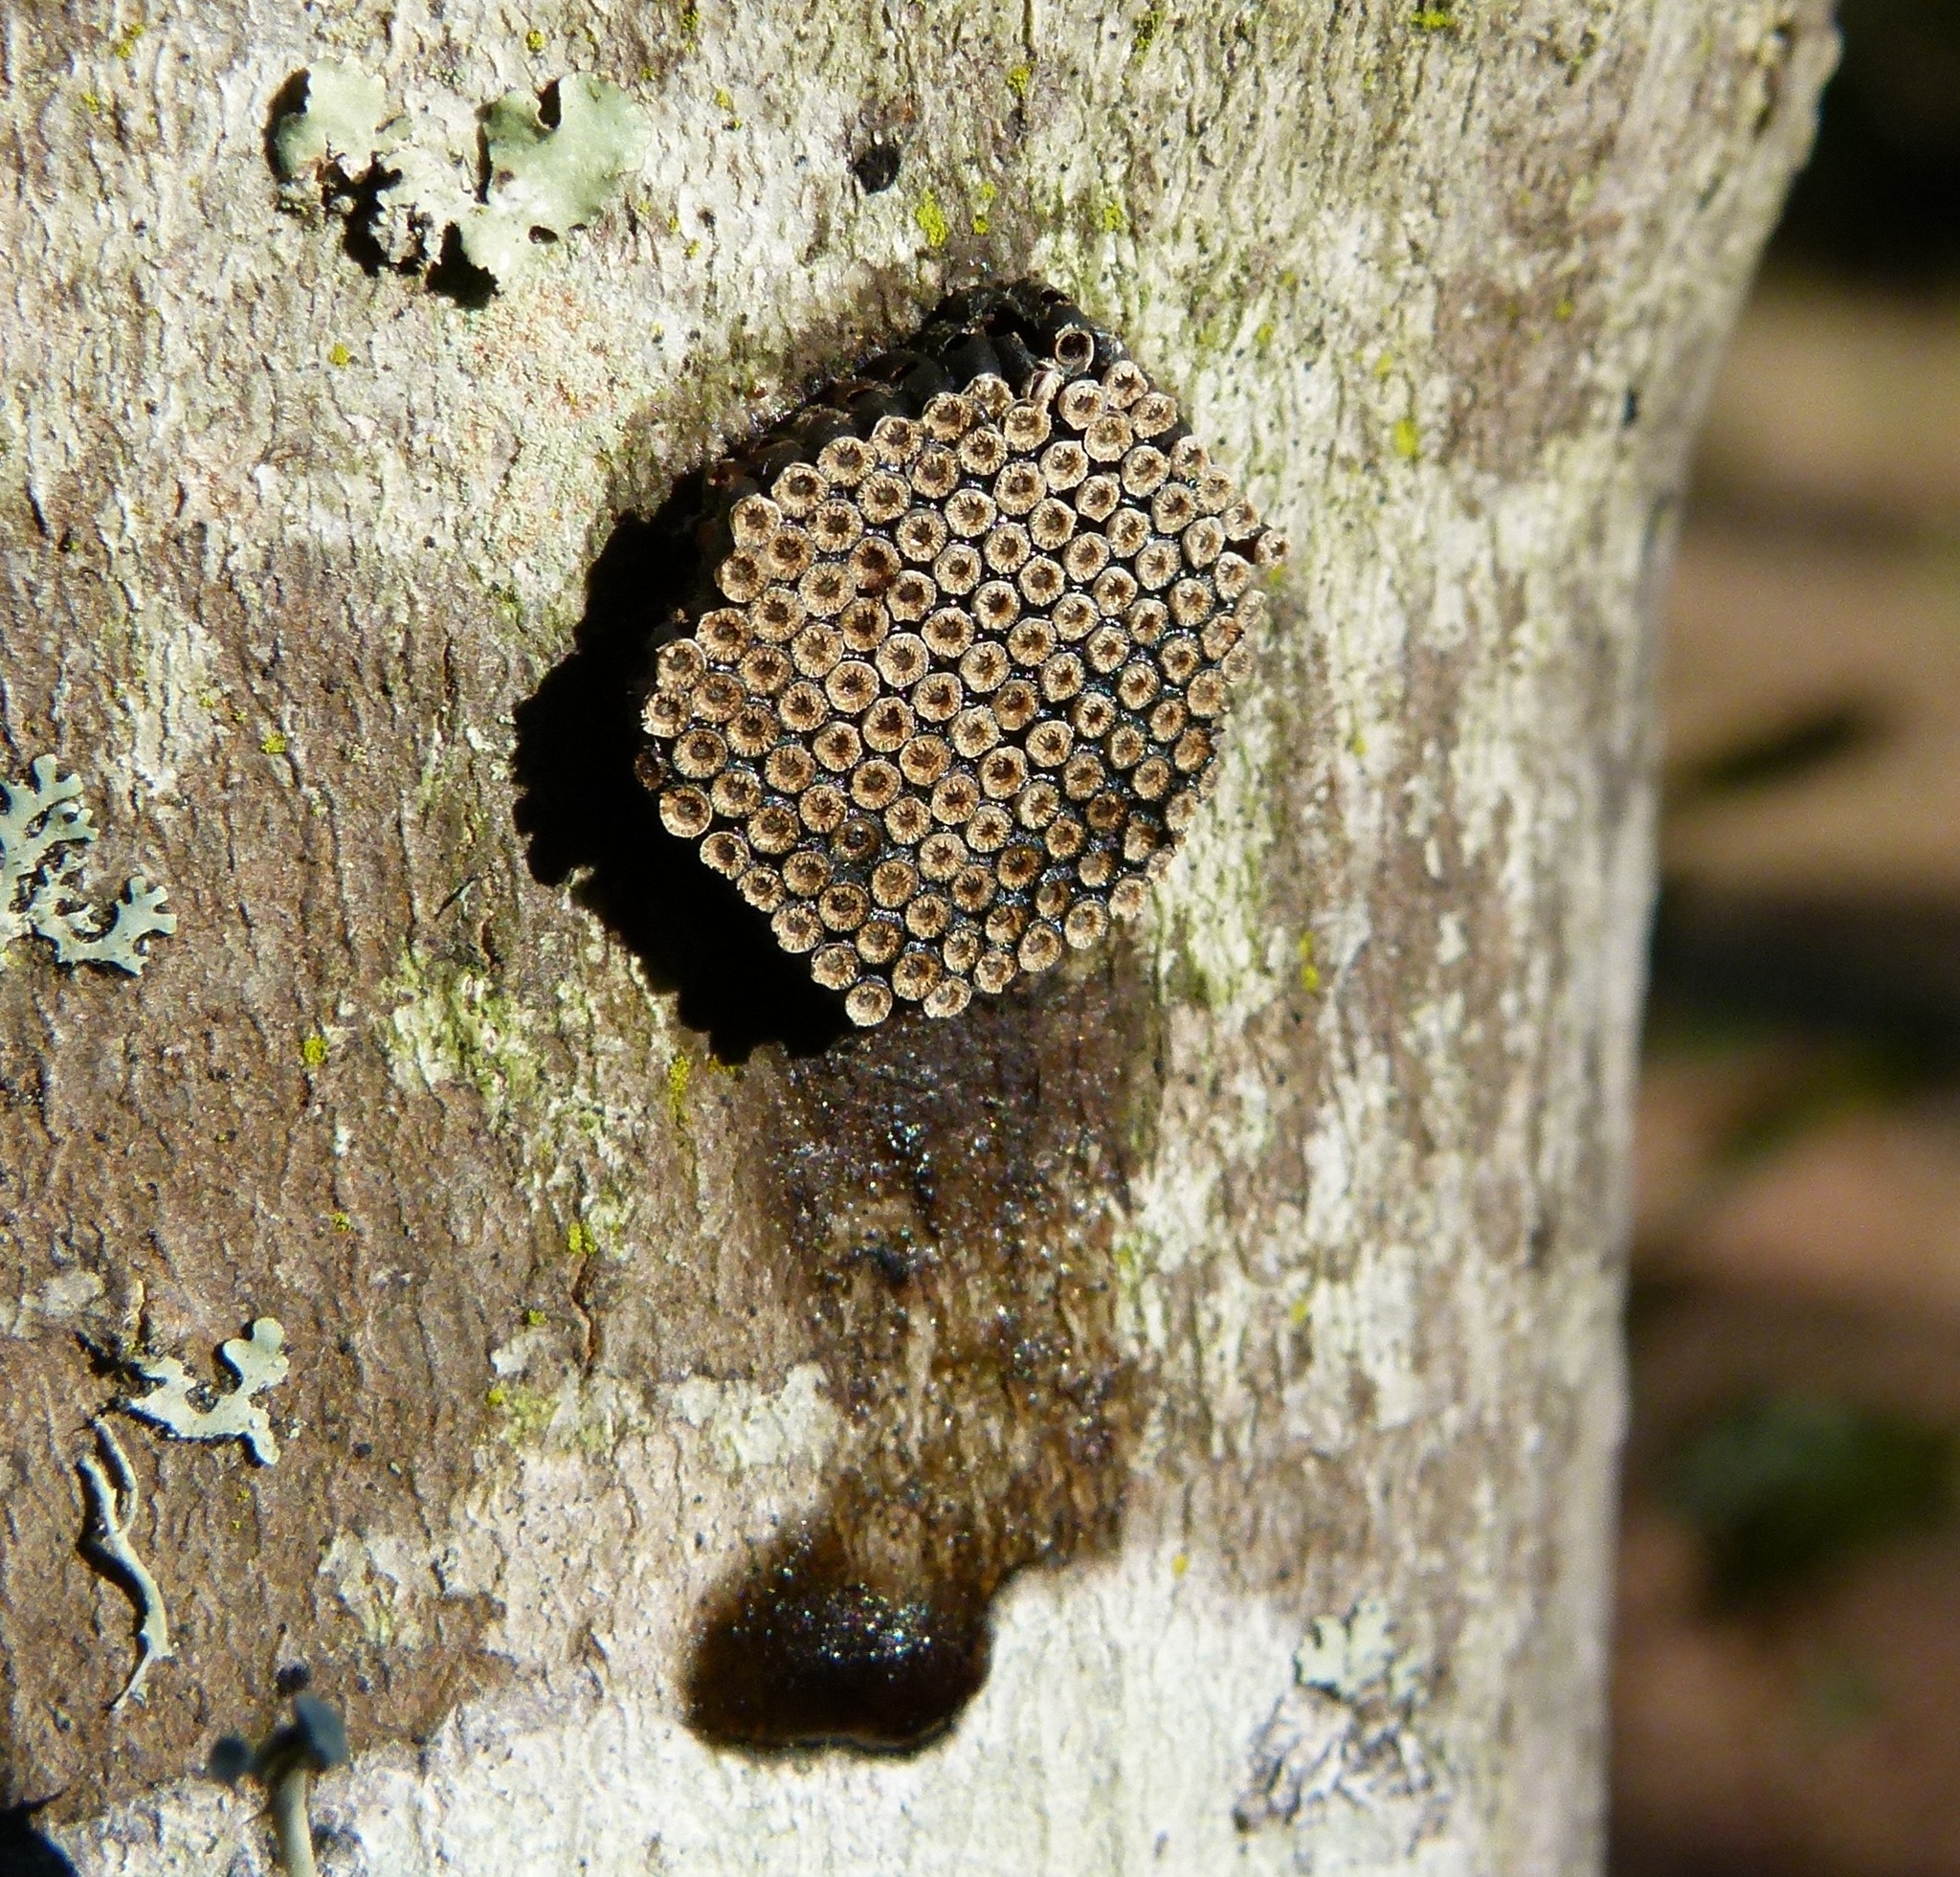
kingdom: Animalia
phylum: Arthropoda
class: Insecta
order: Hemiptera
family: Reduviidae
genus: Arilus
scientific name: Arilus cristatus
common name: North american wheel bug
